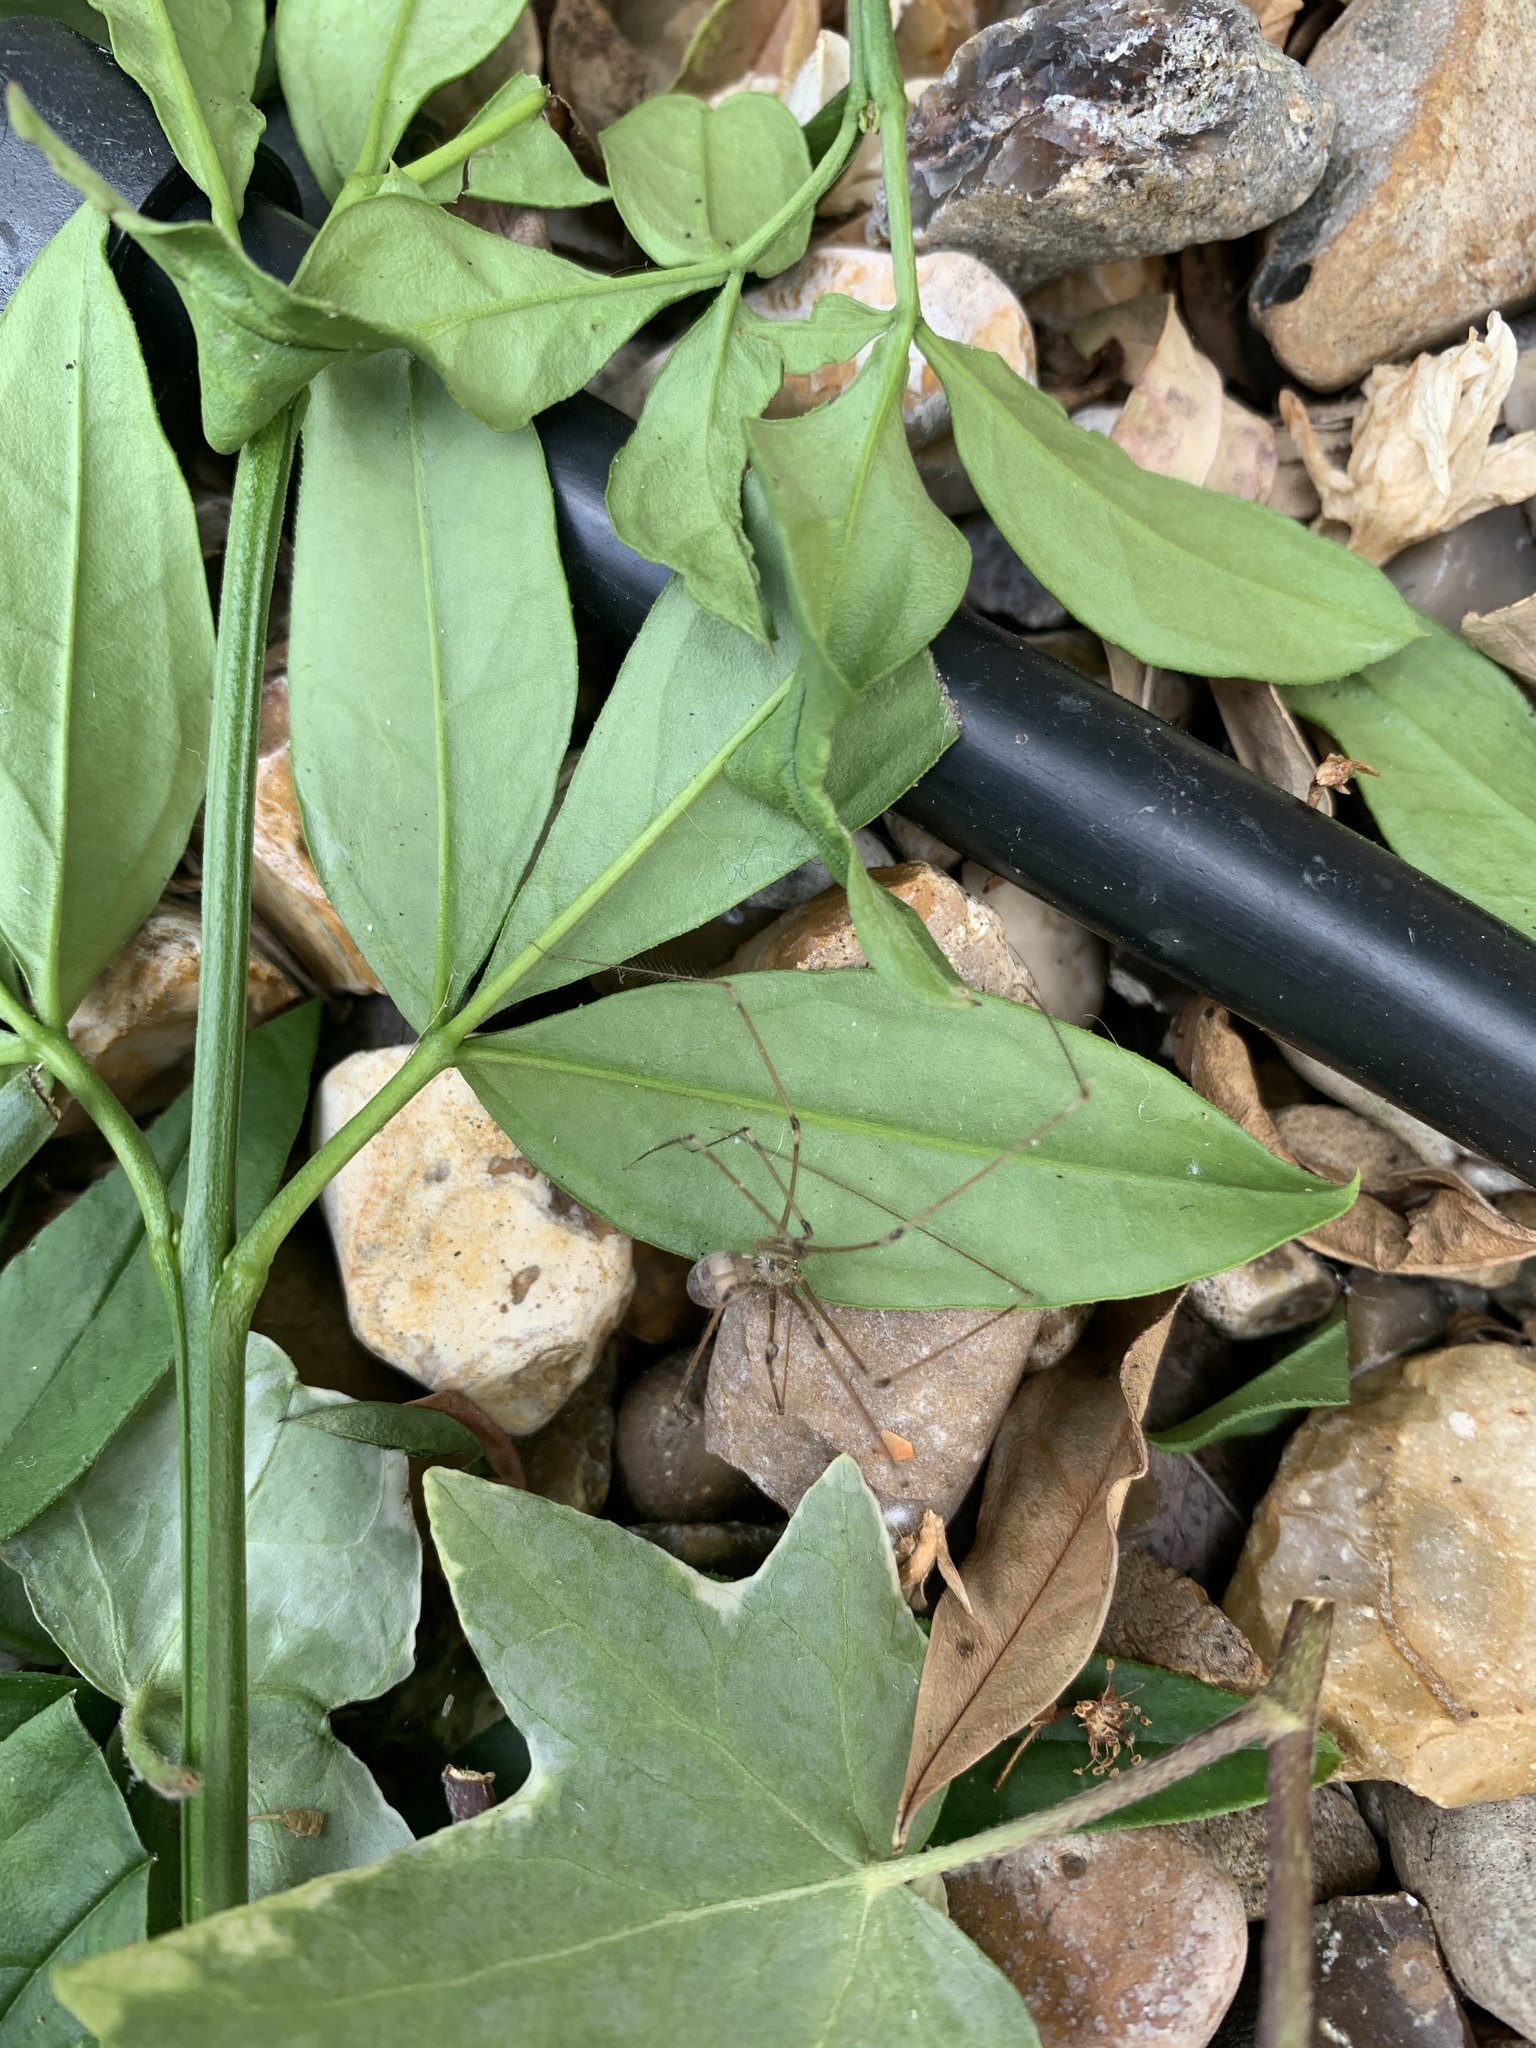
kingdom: Animalia
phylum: Arthropoda
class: Arachnida
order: Araneae
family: Pholcidae
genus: Pholcus
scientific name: Pholcus phalangioides
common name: Longbodied cellar spider
